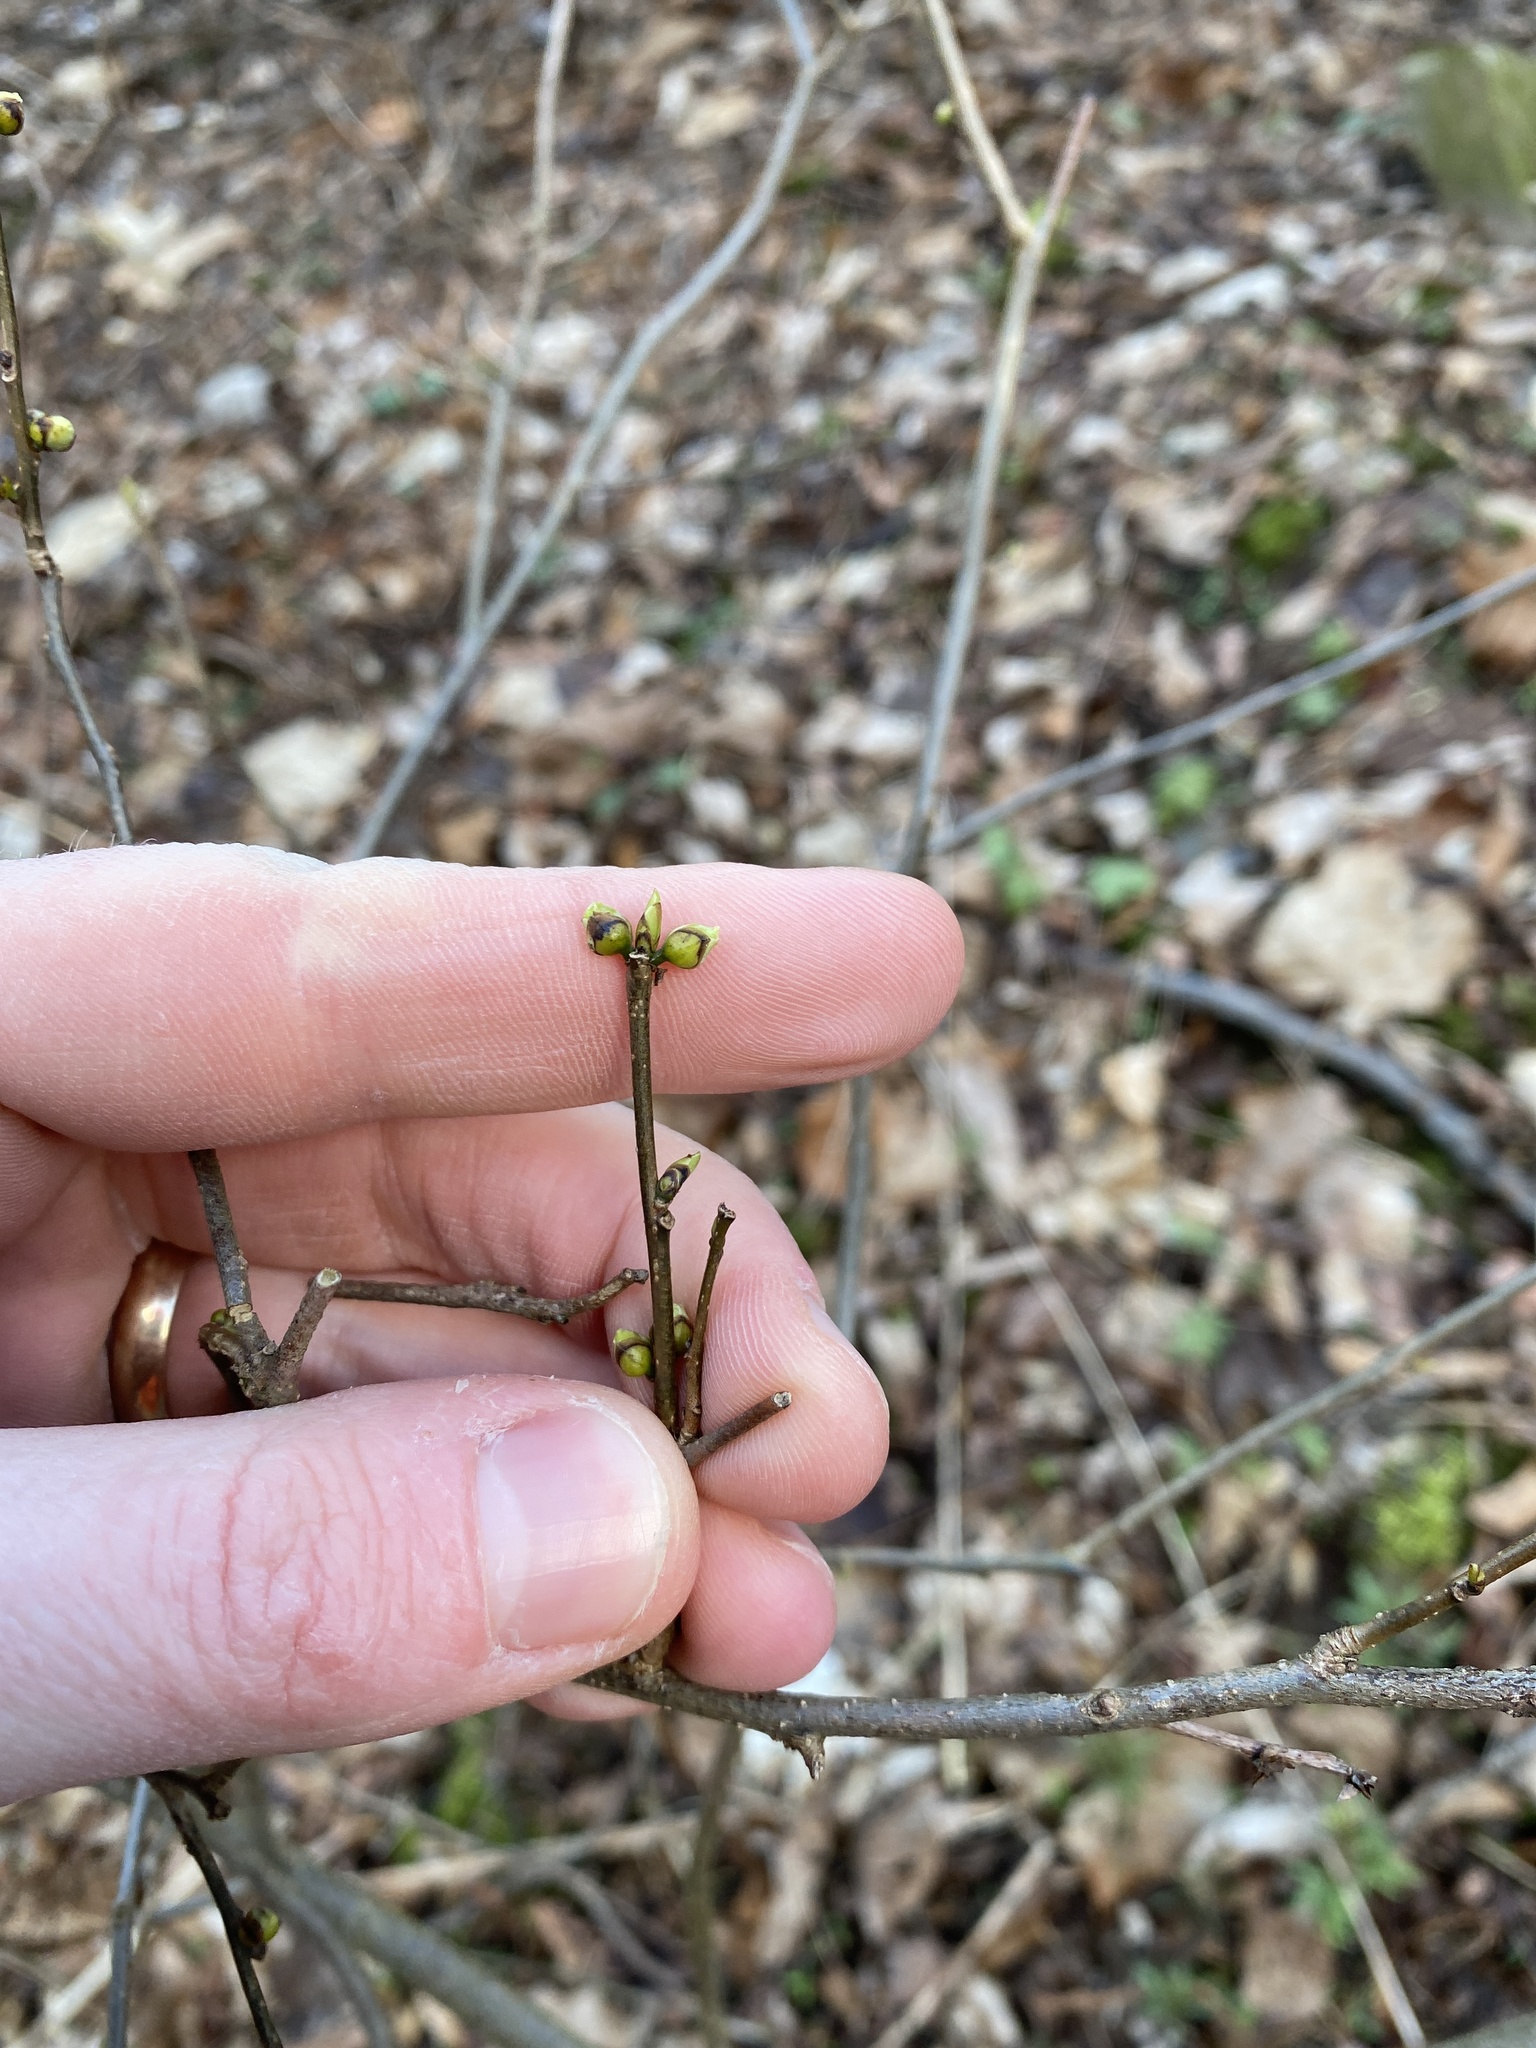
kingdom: Plantae
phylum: Tracheophyta
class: Magnoliopsida
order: Laurales
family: Lauraceae
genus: Lindera
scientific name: Lindera benzoin
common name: Spicebush
